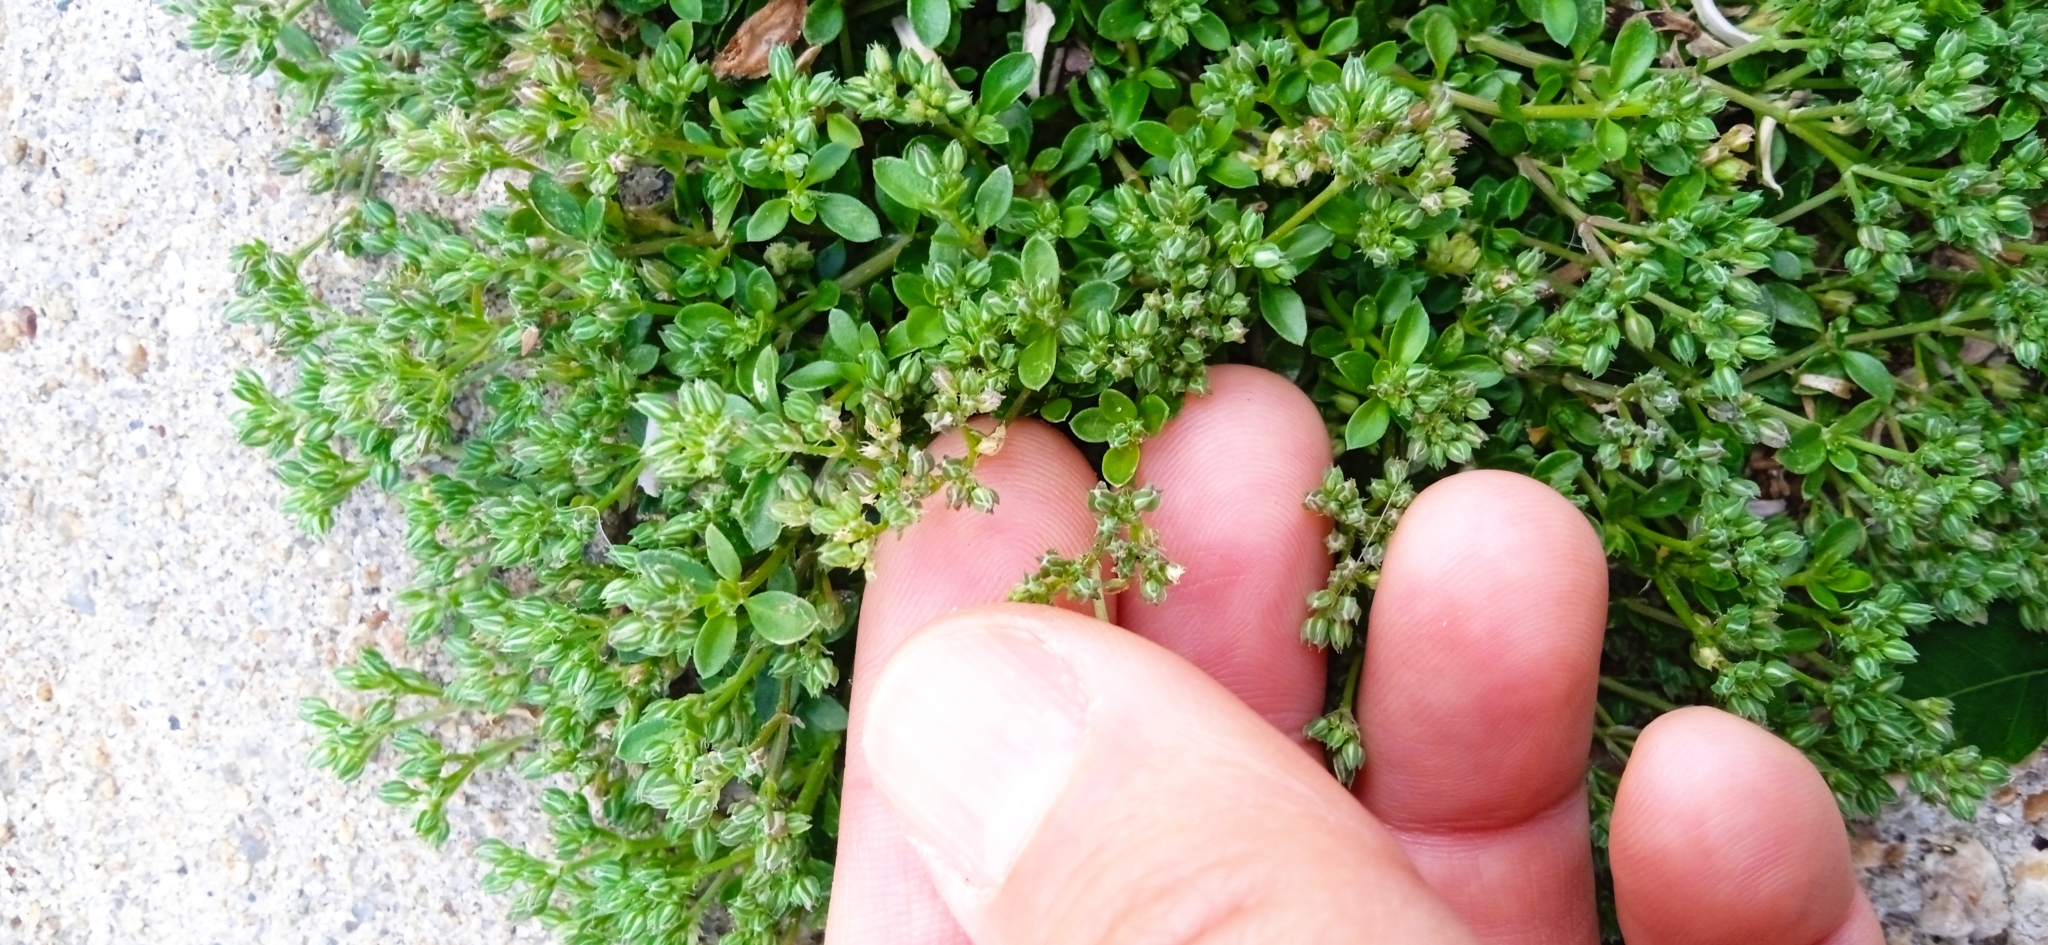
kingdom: Plantae
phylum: Tracheophyta
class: Magnoliopsida
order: Caryophyllales
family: Caryophyllaceae
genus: Polycarpon
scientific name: Polycarpon tetraphyllum
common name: Four-leaved all-seed
